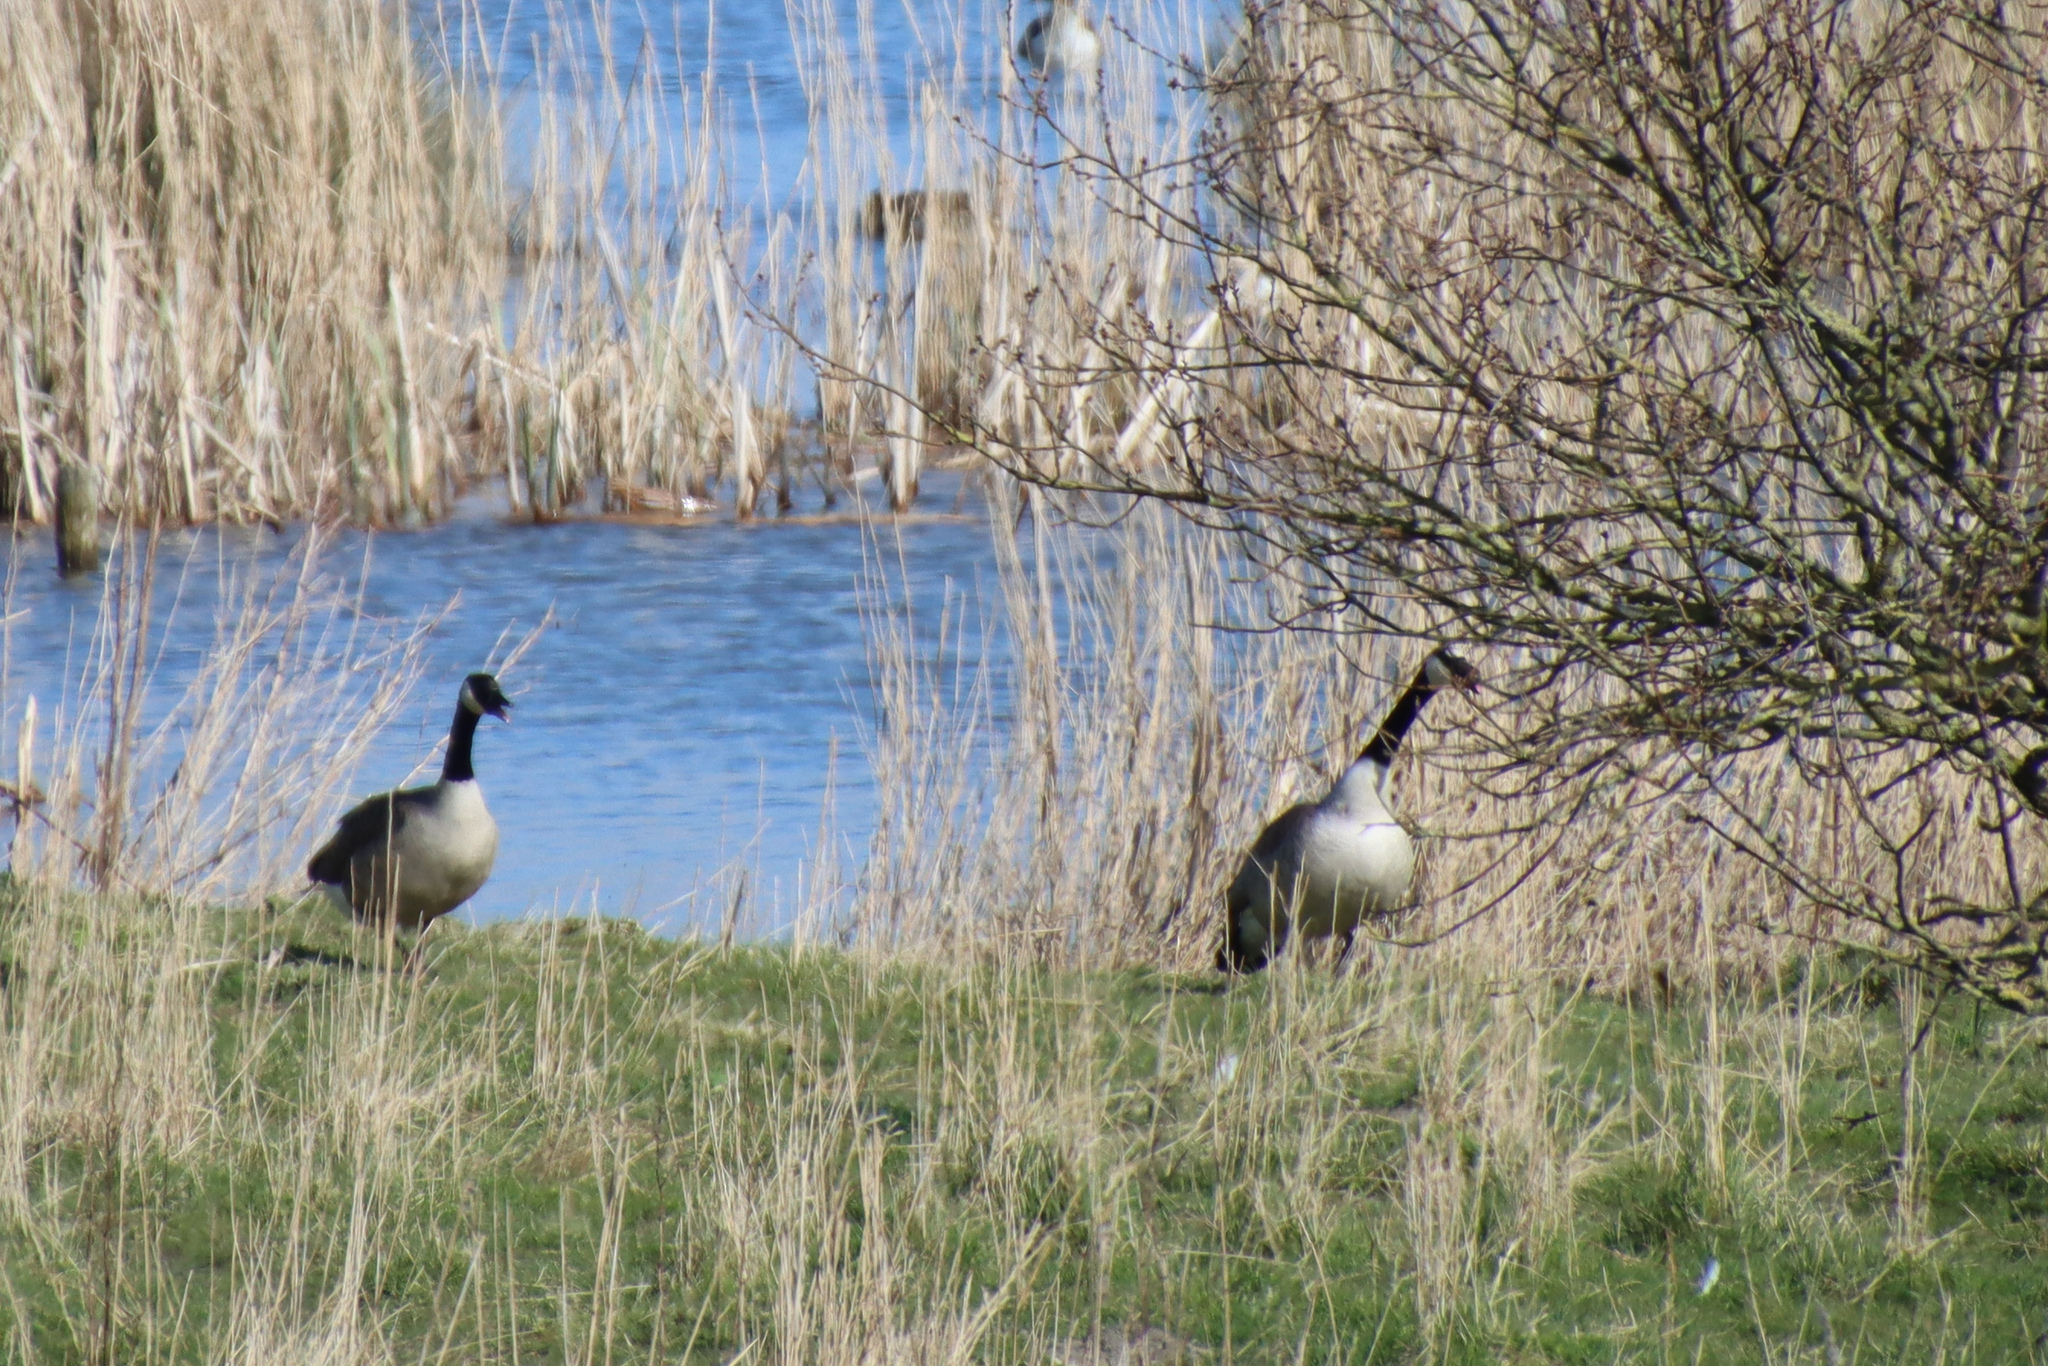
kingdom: Animalia
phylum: Chordata
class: Aves
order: Anseriformes
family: Anatidae
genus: Branta
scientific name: Branta canadensis
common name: Canada goose
